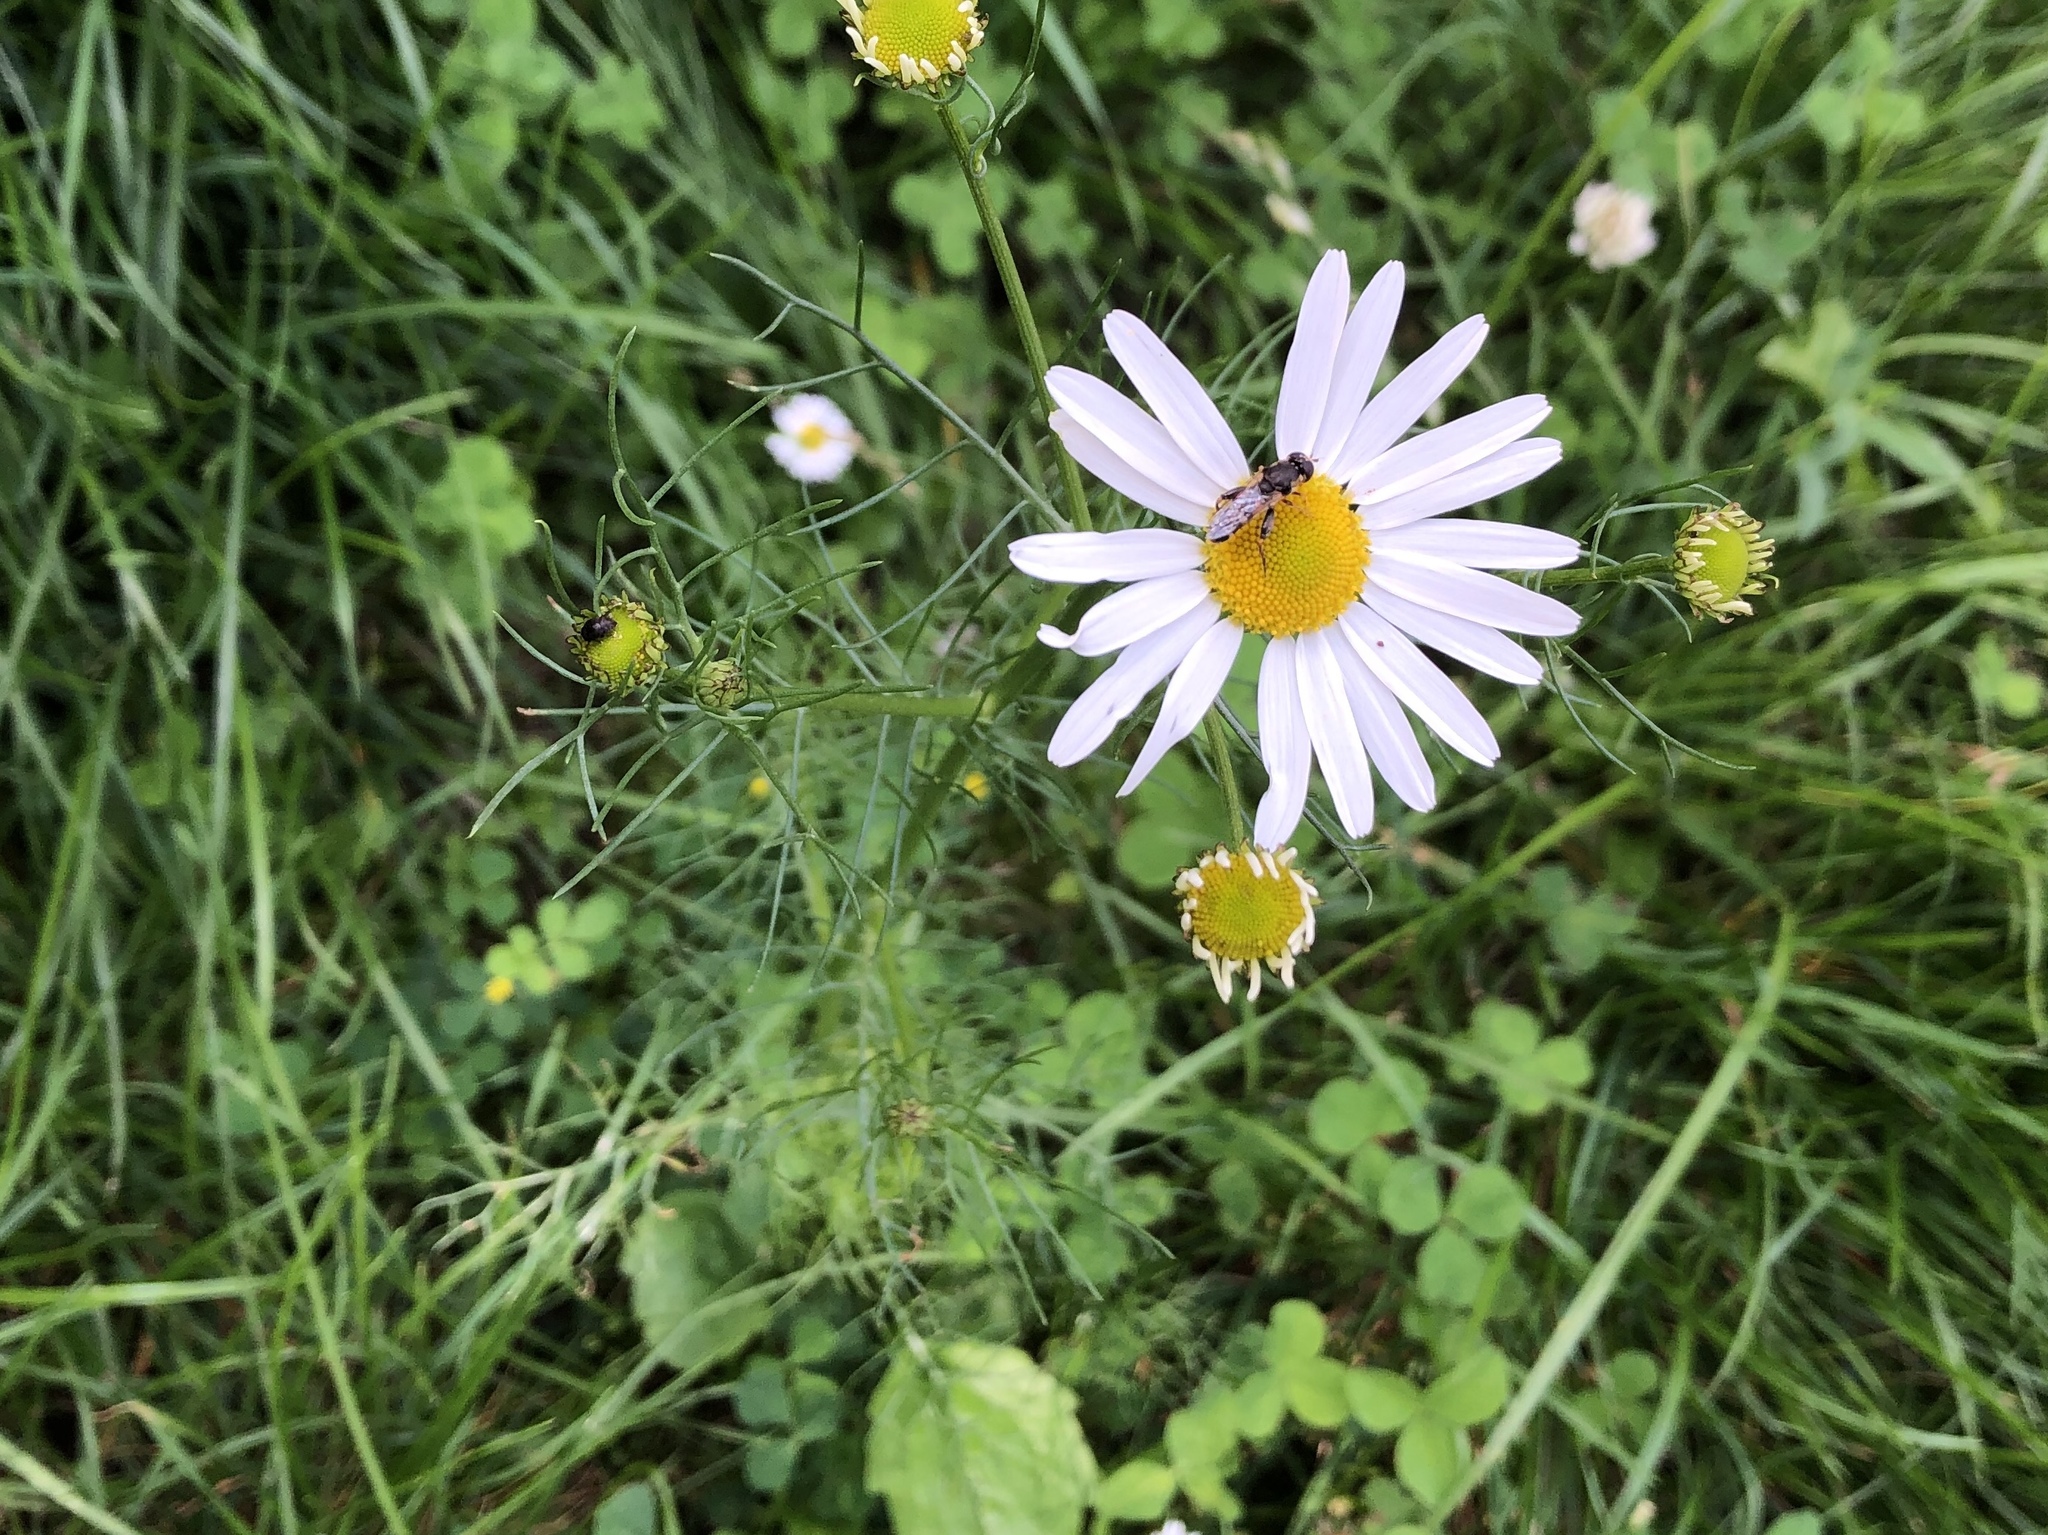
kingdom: Plantae
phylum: Tracheophyta
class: Magnoliopsida
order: Asterales
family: Asteraceae
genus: Tripleurospermum
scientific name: Tripleurospermum inodorum
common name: Scentless mayweed
